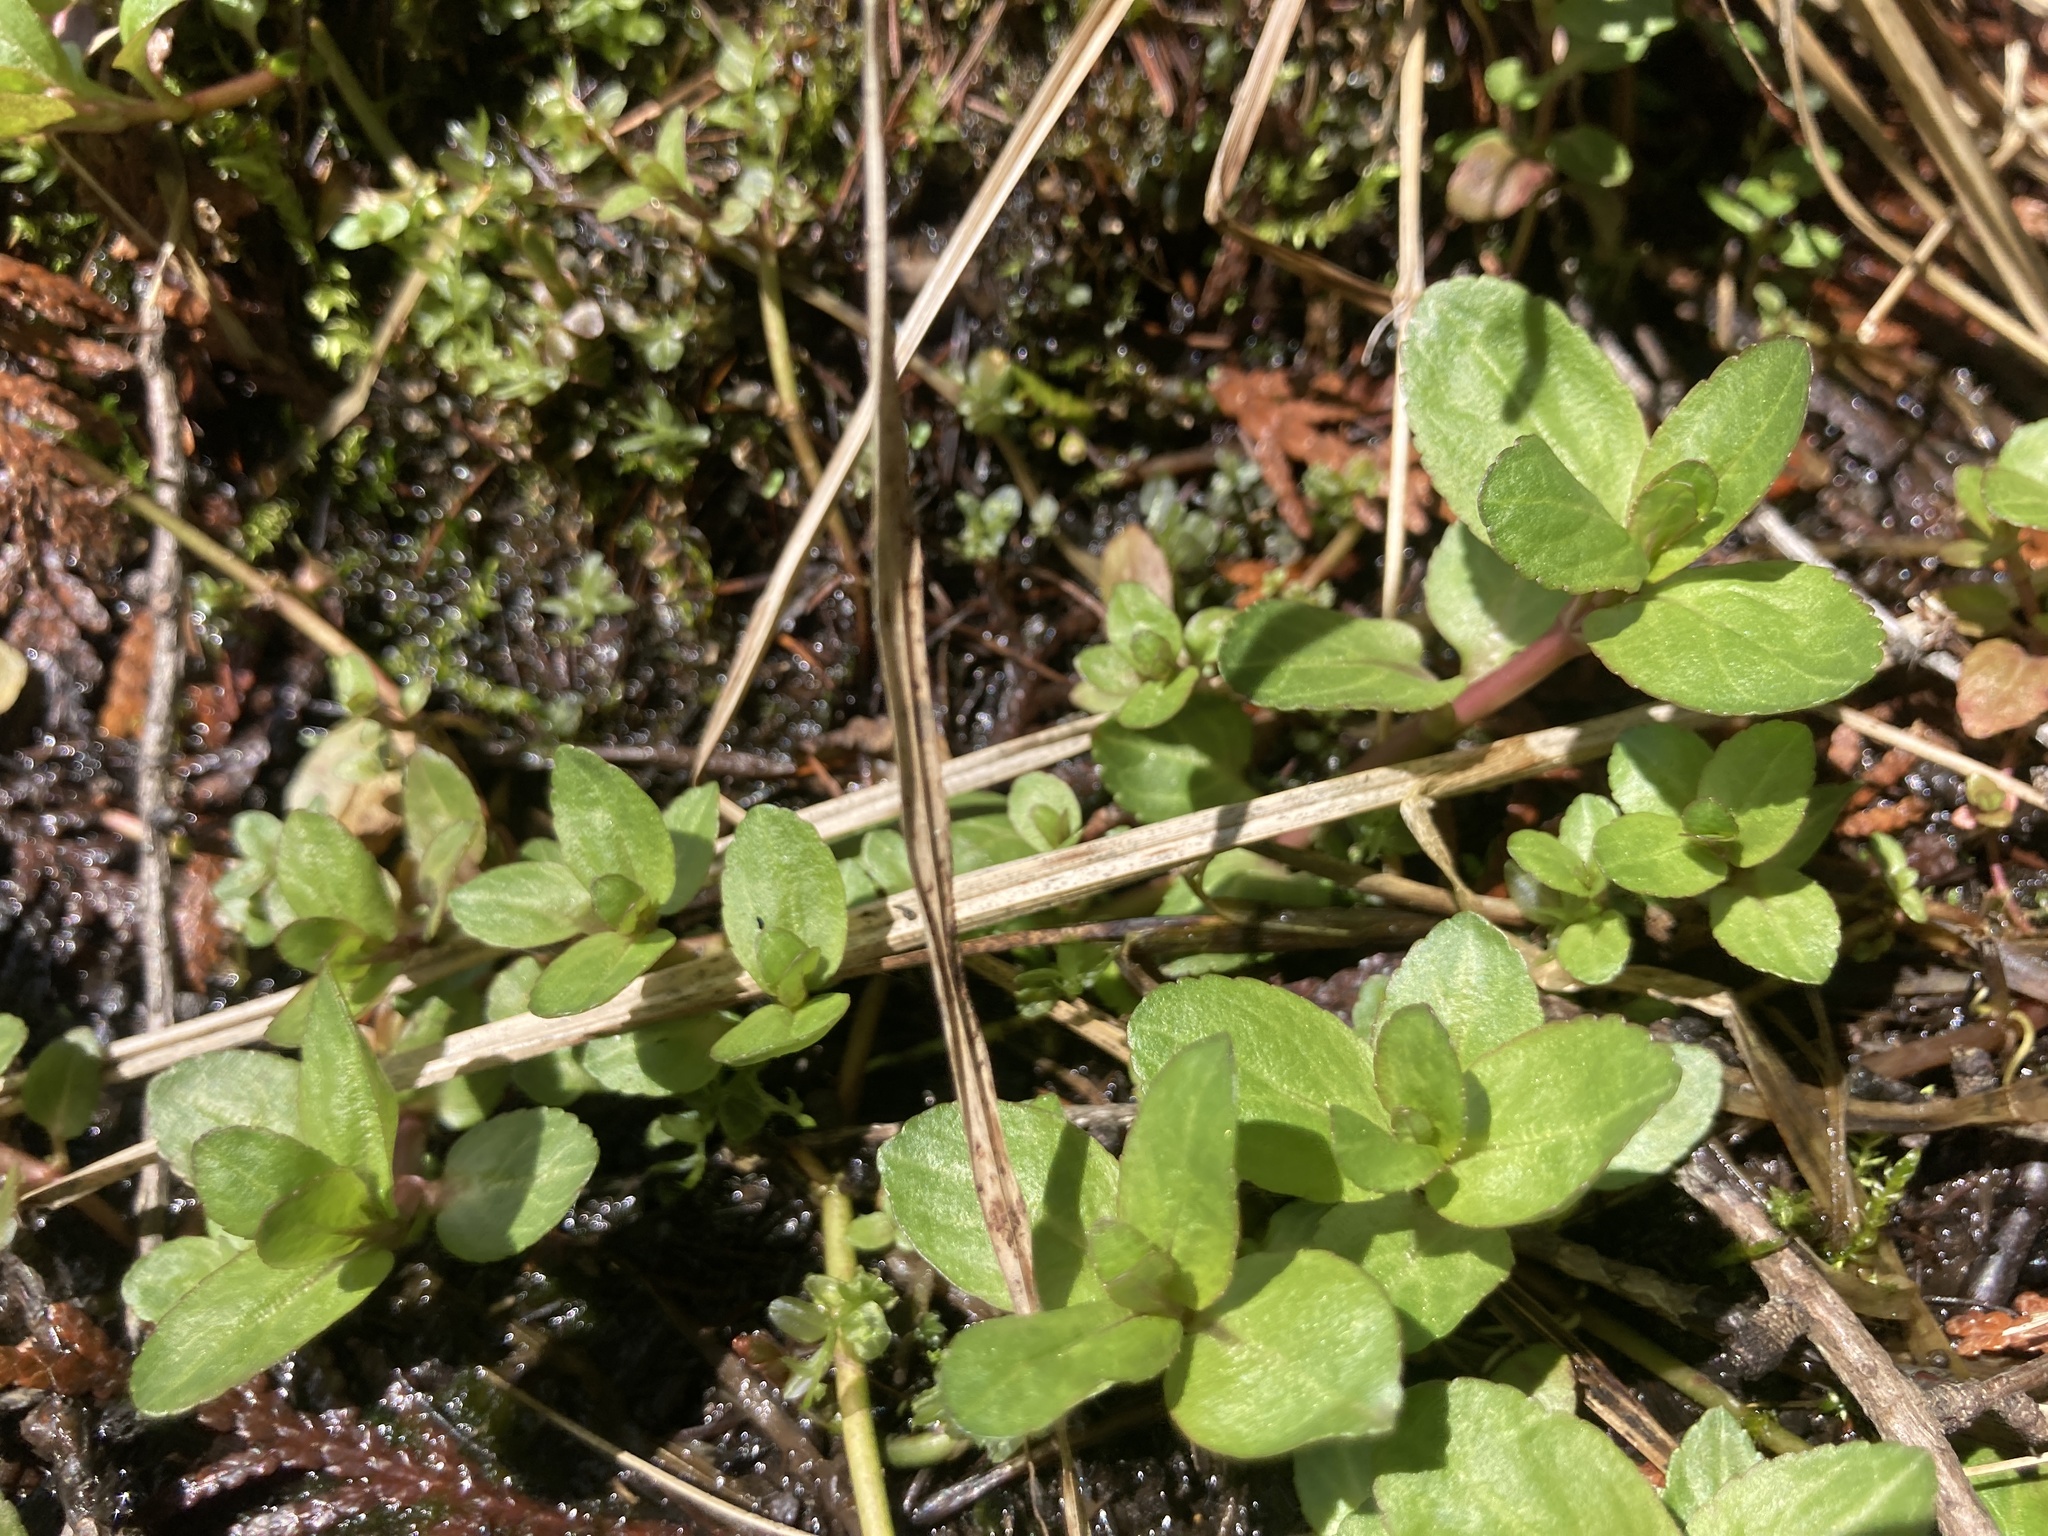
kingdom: Plantae
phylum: Tracheophyta
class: Magnoliopsida
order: Lamiales
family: Plantaginaceae
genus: Veronica
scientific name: Veronica americana
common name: American brooklime
